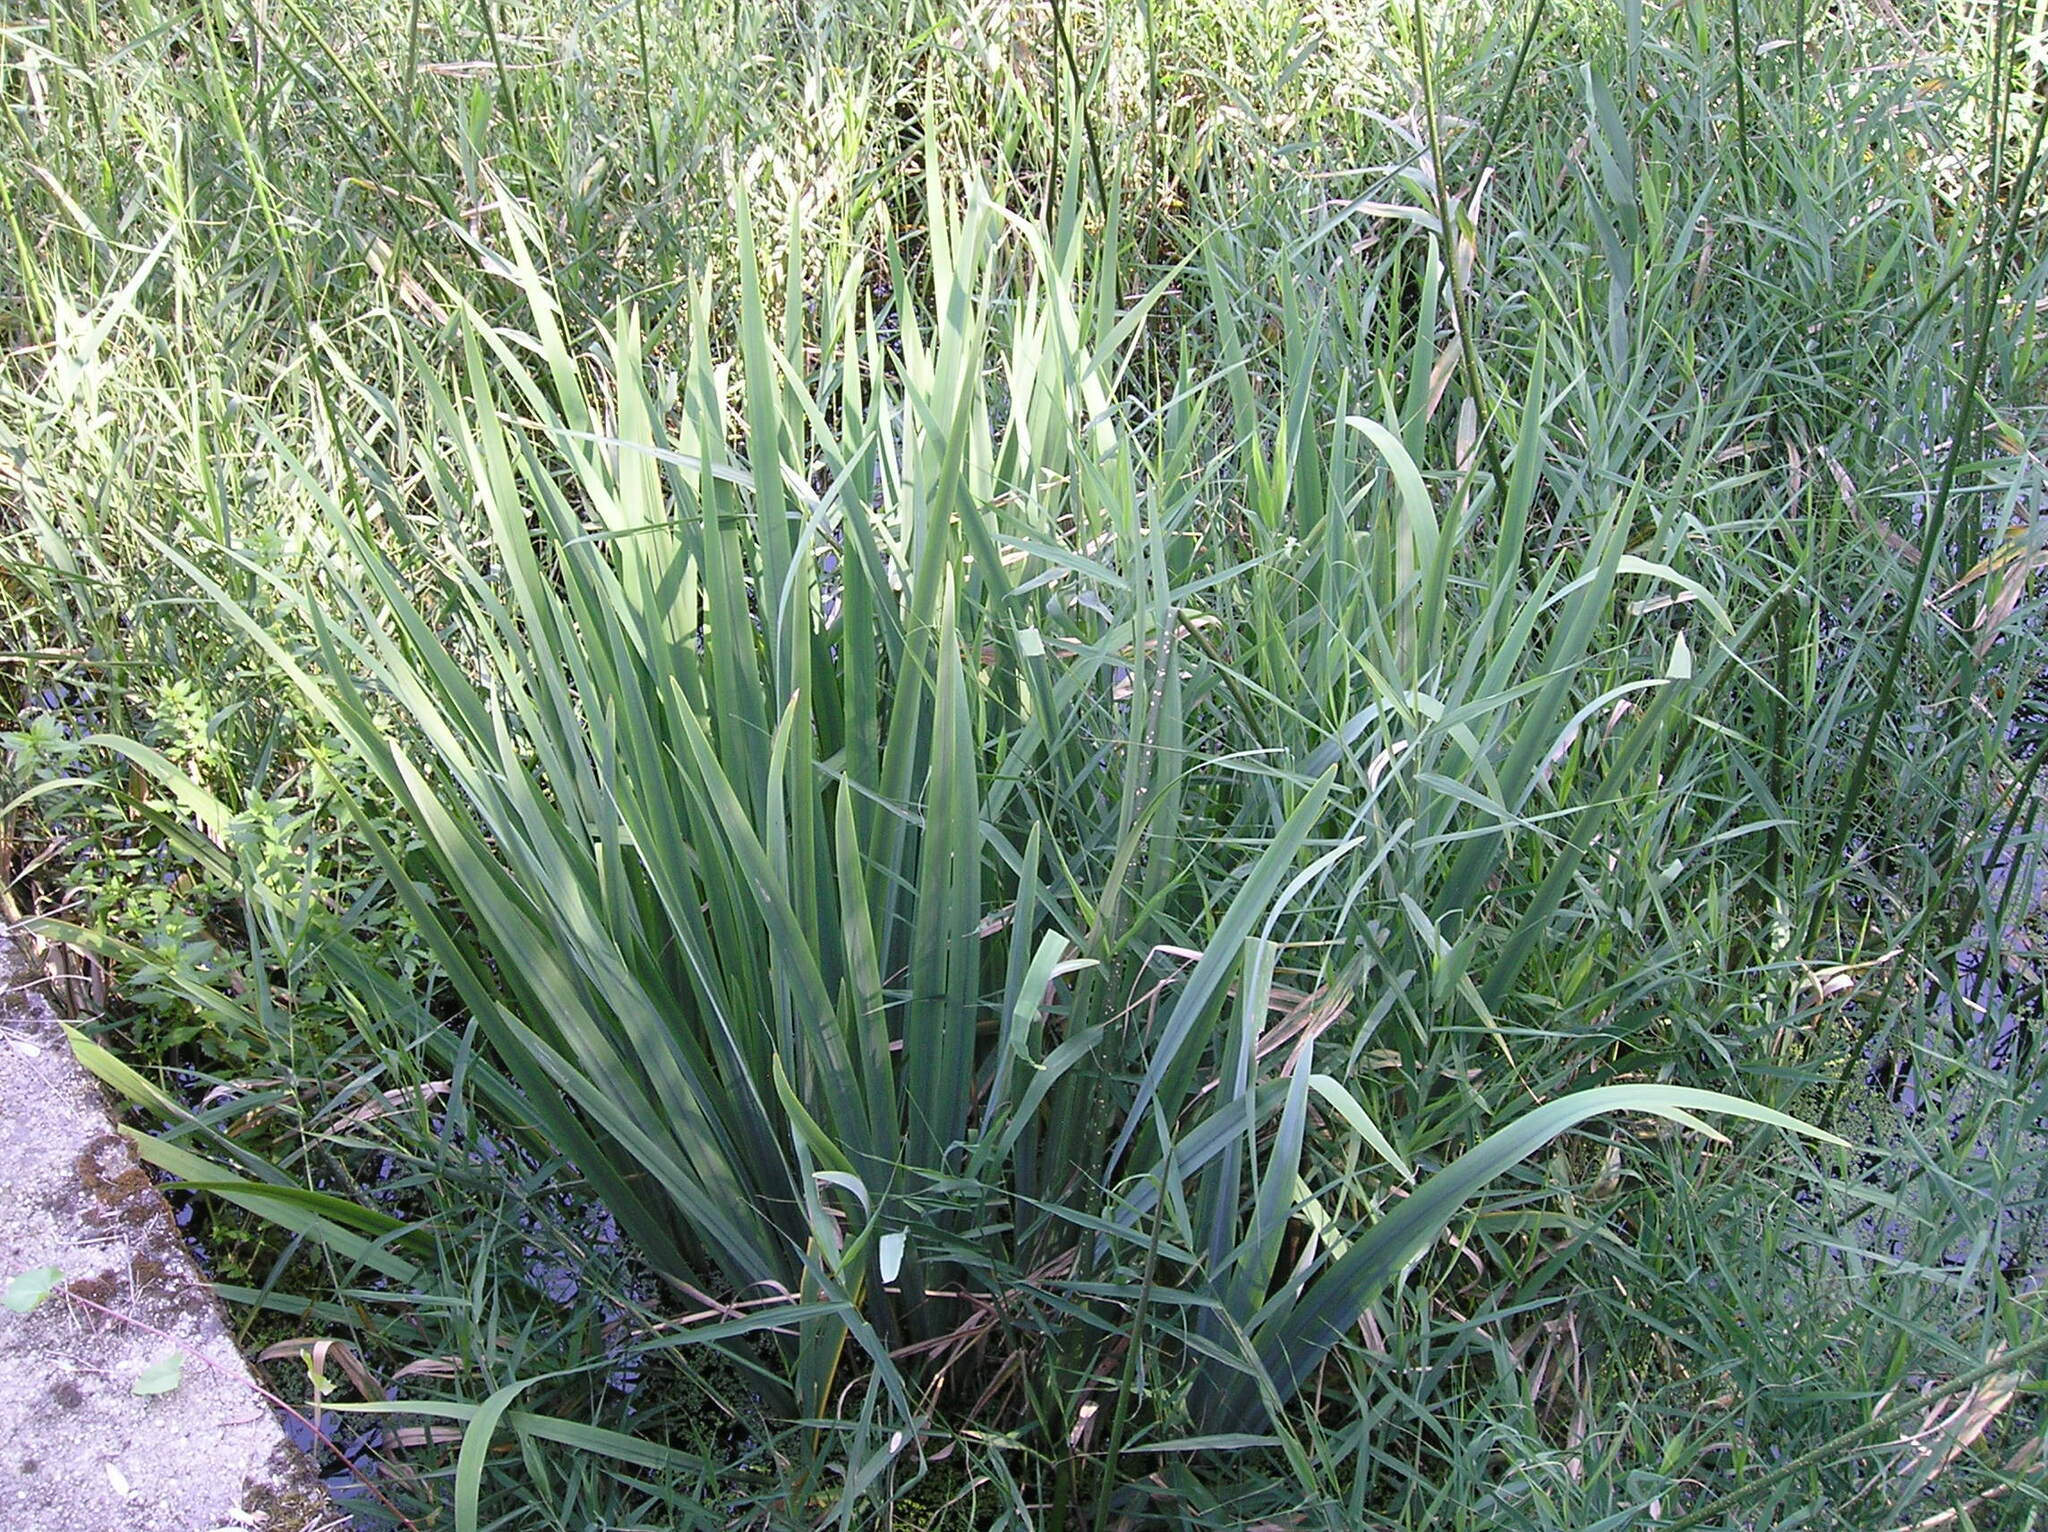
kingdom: Plantae
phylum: Tracheophyta
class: Liliopsida
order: Asparagales
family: Iridaceae
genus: Iris
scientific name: Iris pseudacorus
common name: Yellow flag
